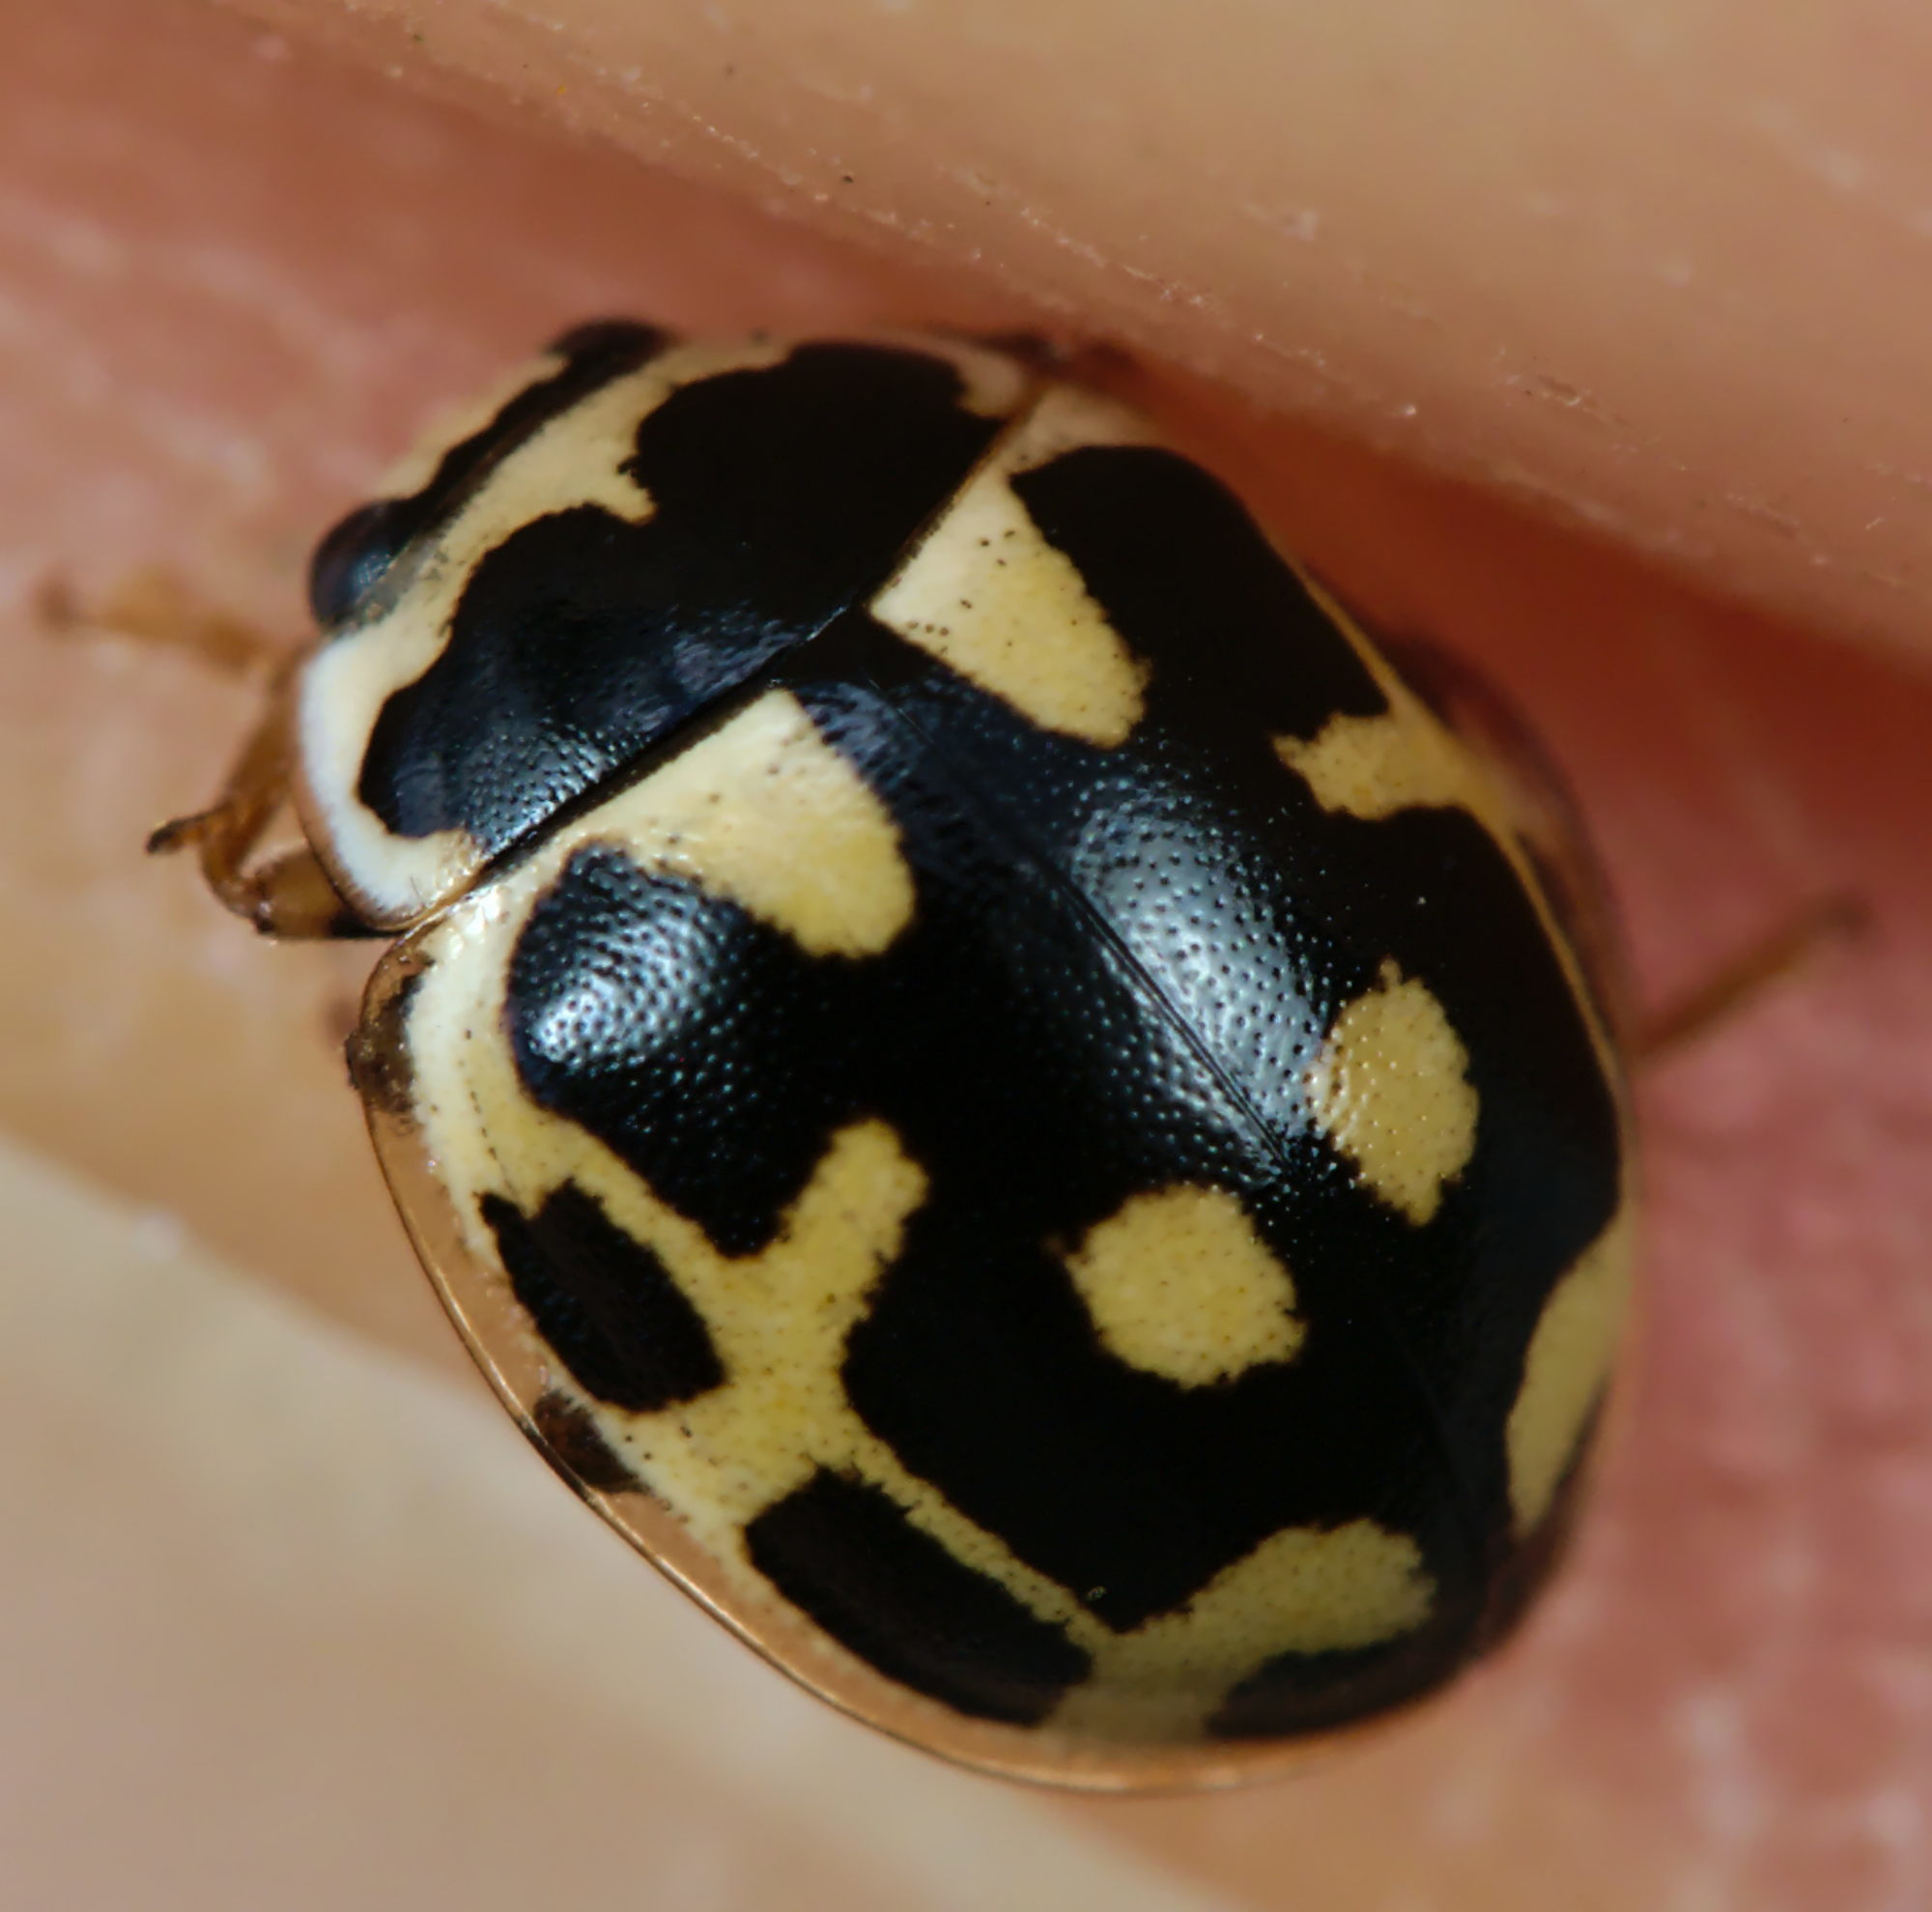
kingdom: Animalia
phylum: Arthropoda
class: Insecta
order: Coleoptera
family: Coccinellidae
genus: Propylaea
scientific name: Propylaea quatuordecimpunctata
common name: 14-spotted ladybird beetle
